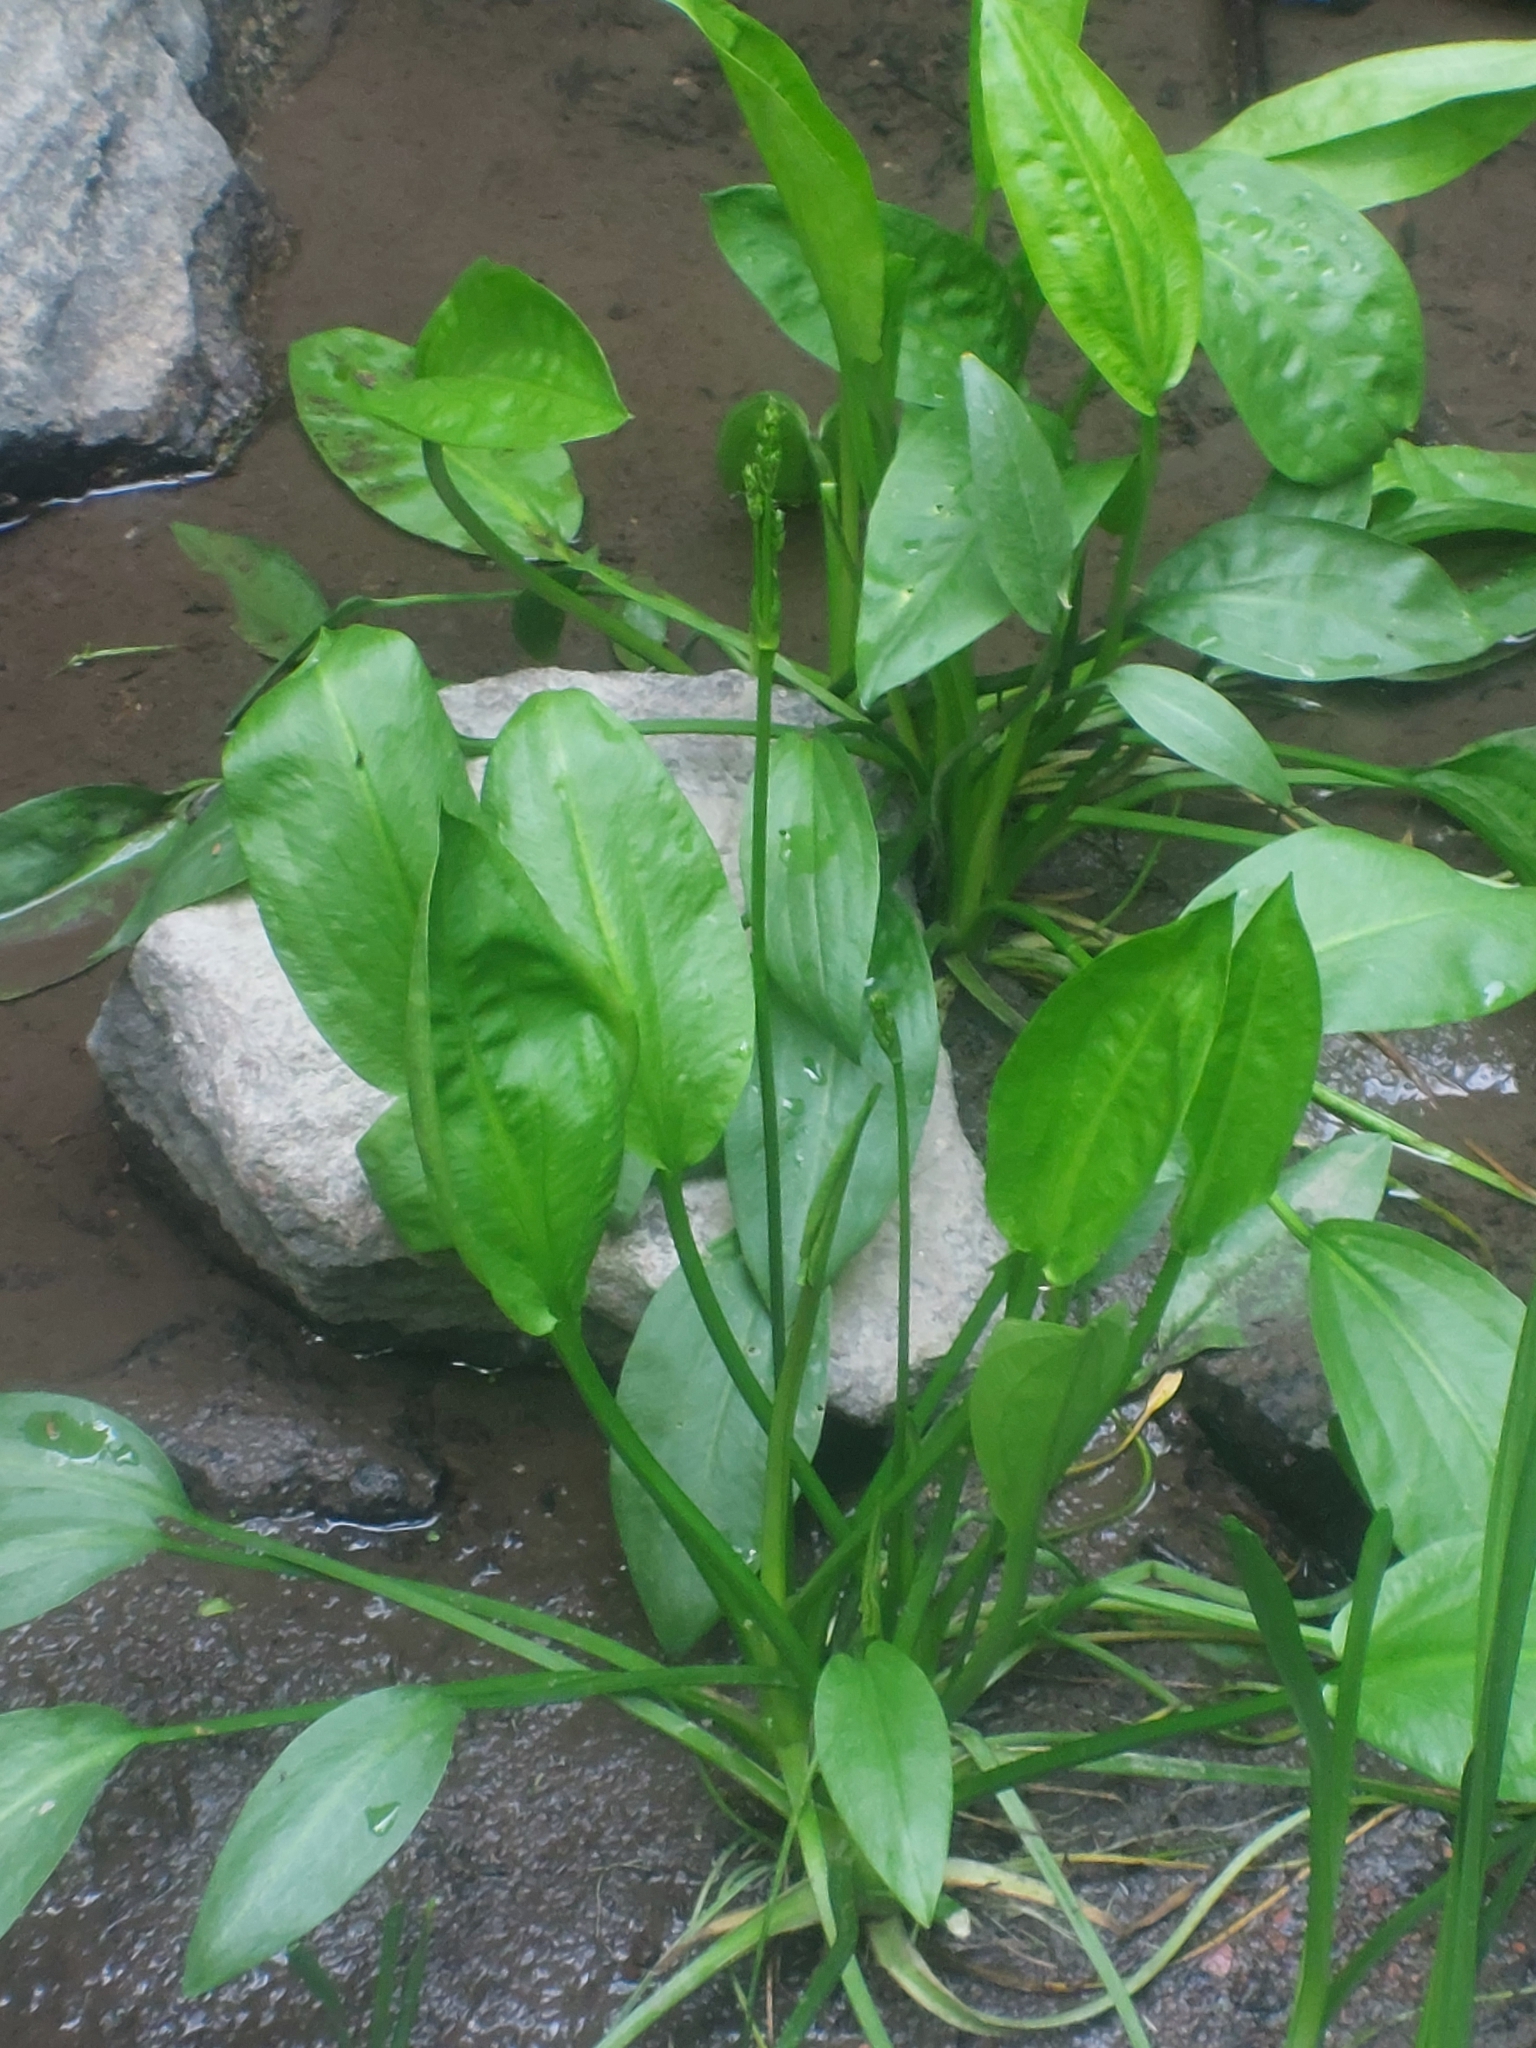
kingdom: Plantae
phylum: Tracheophyta
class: Liliopsida
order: Alismatales
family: Alismataceae
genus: Alisma
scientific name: Alisma plantago-aquatica
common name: Water-plantain
